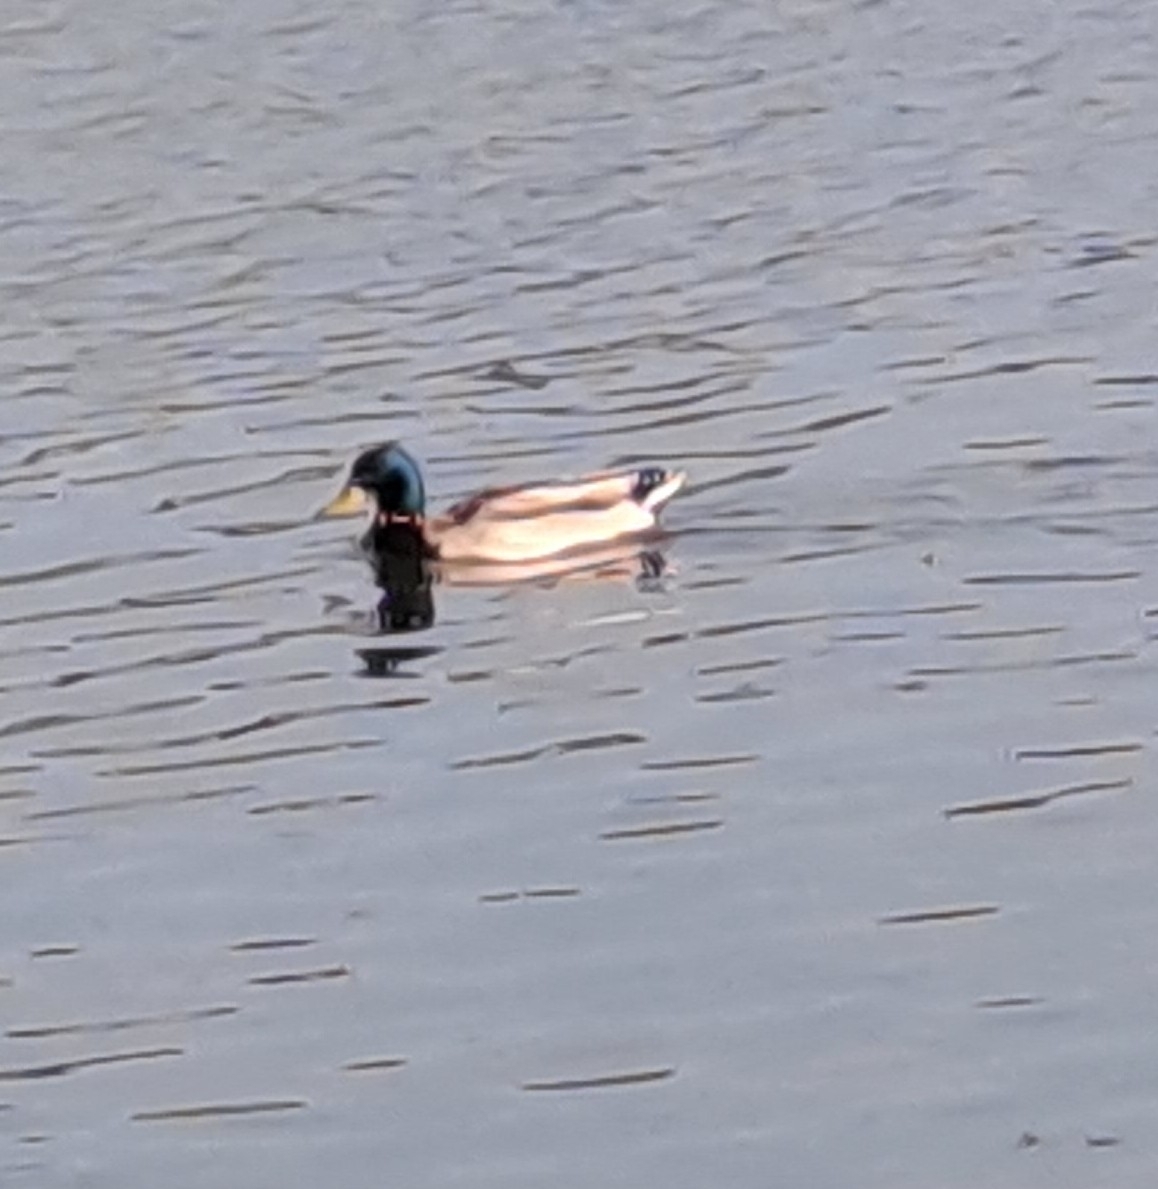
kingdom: Animalia
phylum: Chordata
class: Aves
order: Anseriformes
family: Anatidae
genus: Anas
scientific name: Anas platyrhynchos
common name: Mallard
